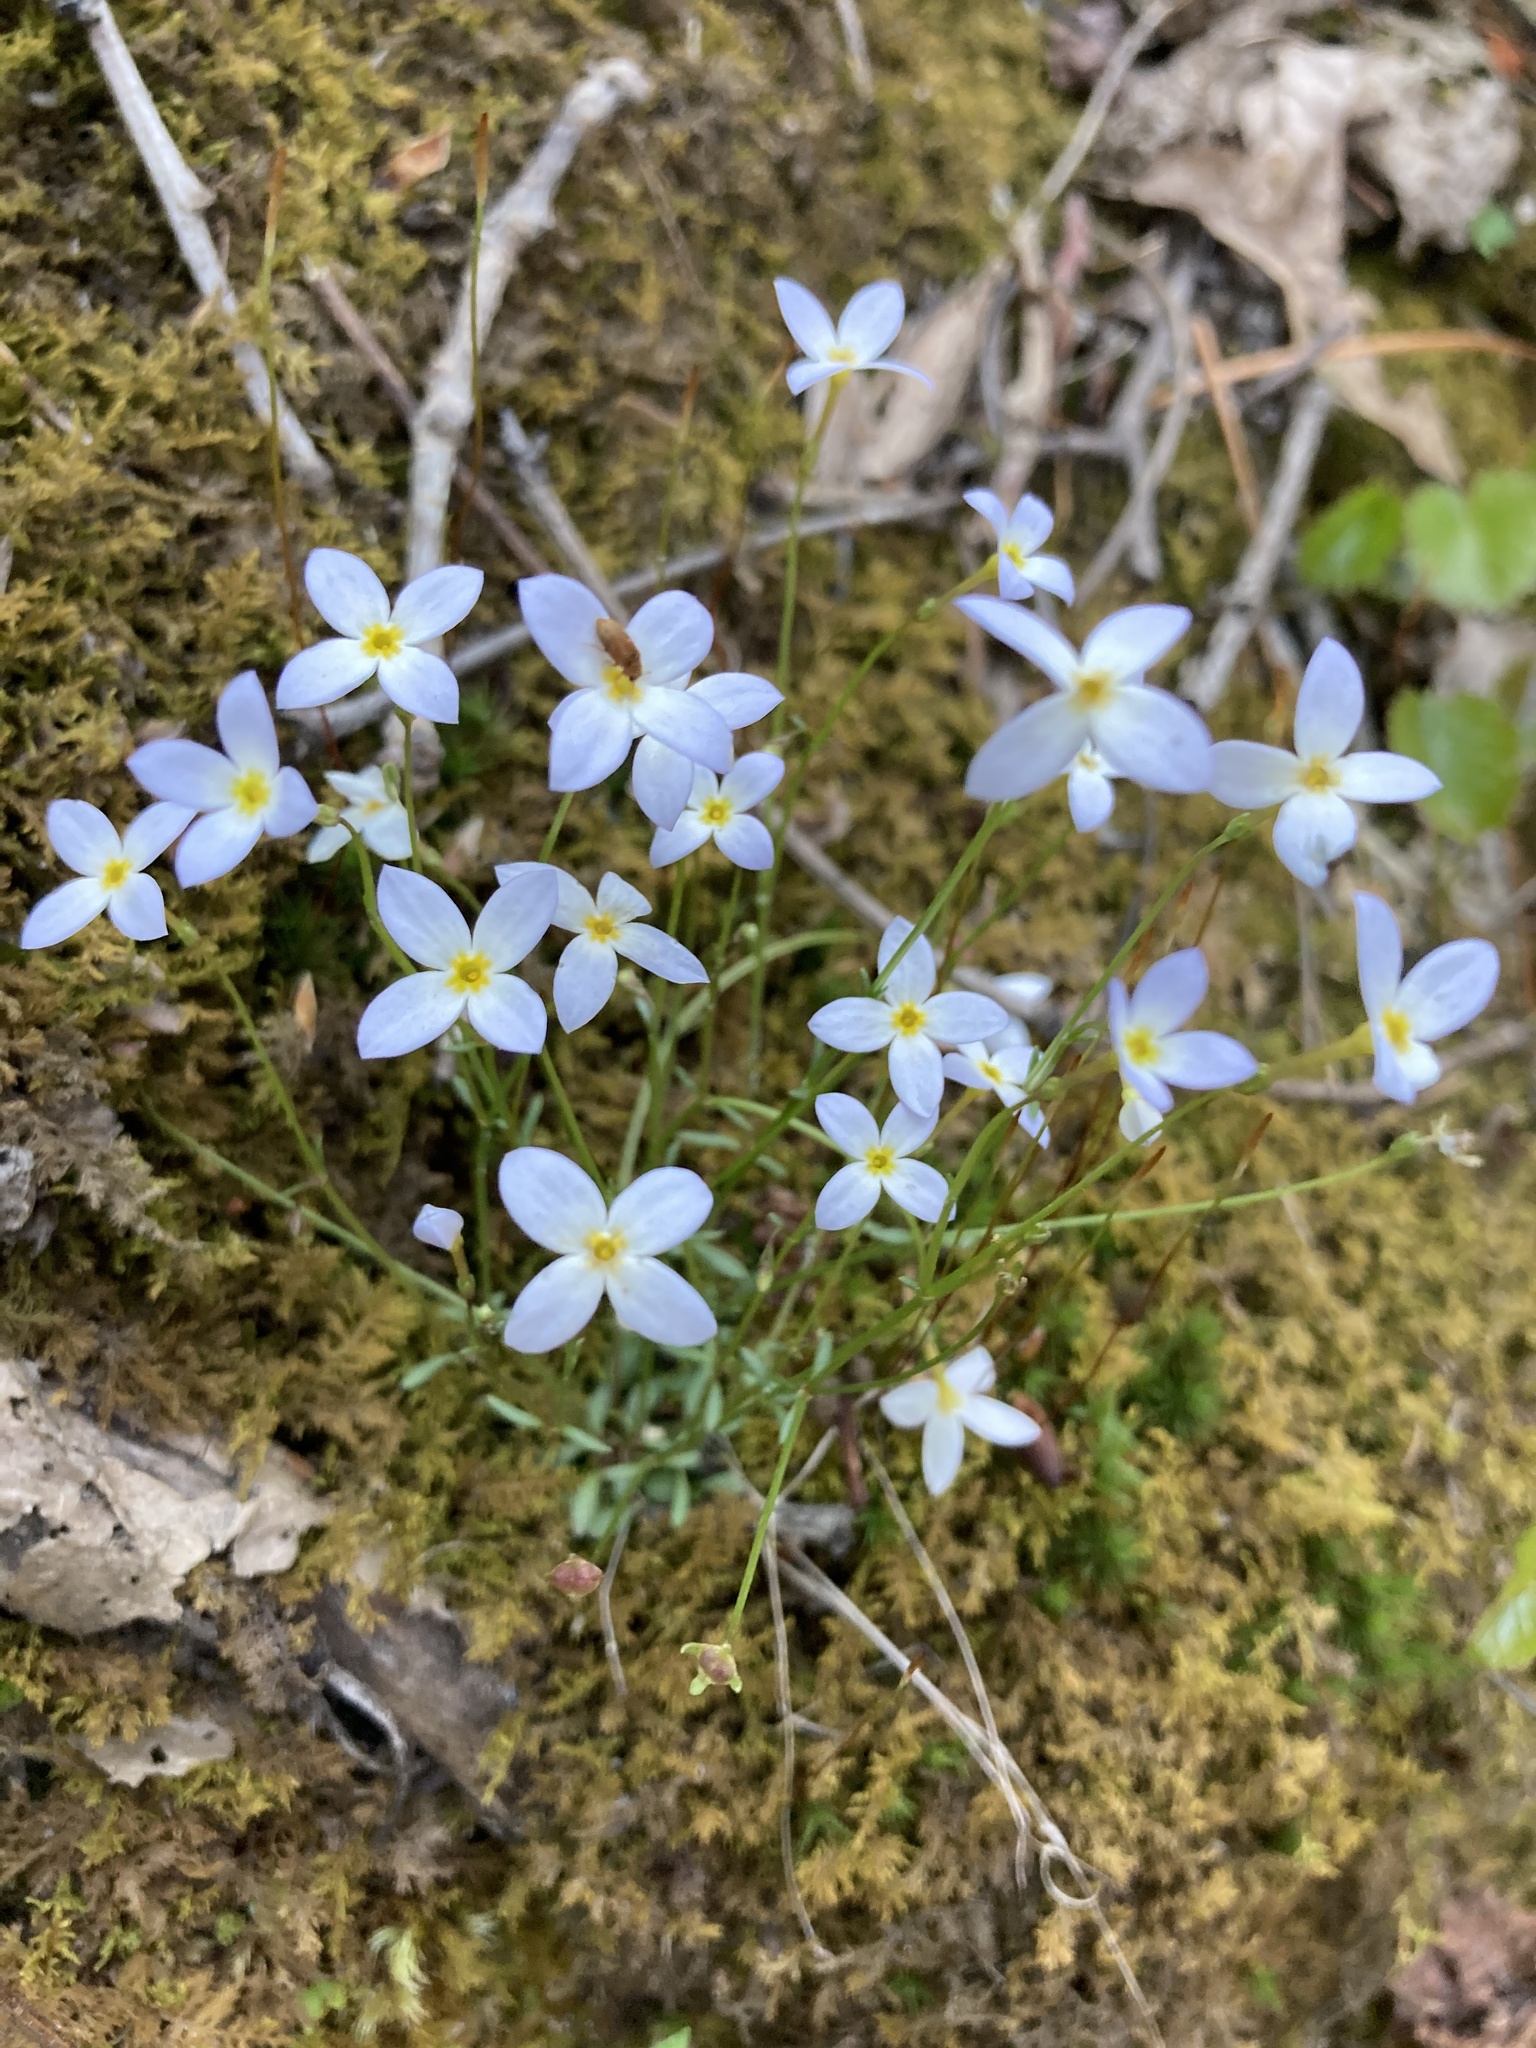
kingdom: Plantae
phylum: Tracheophyta
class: Magnoliopsida
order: Gentianales
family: Rubiaceae
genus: Houstonia
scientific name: Houstonia caerulea
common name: Bluets
